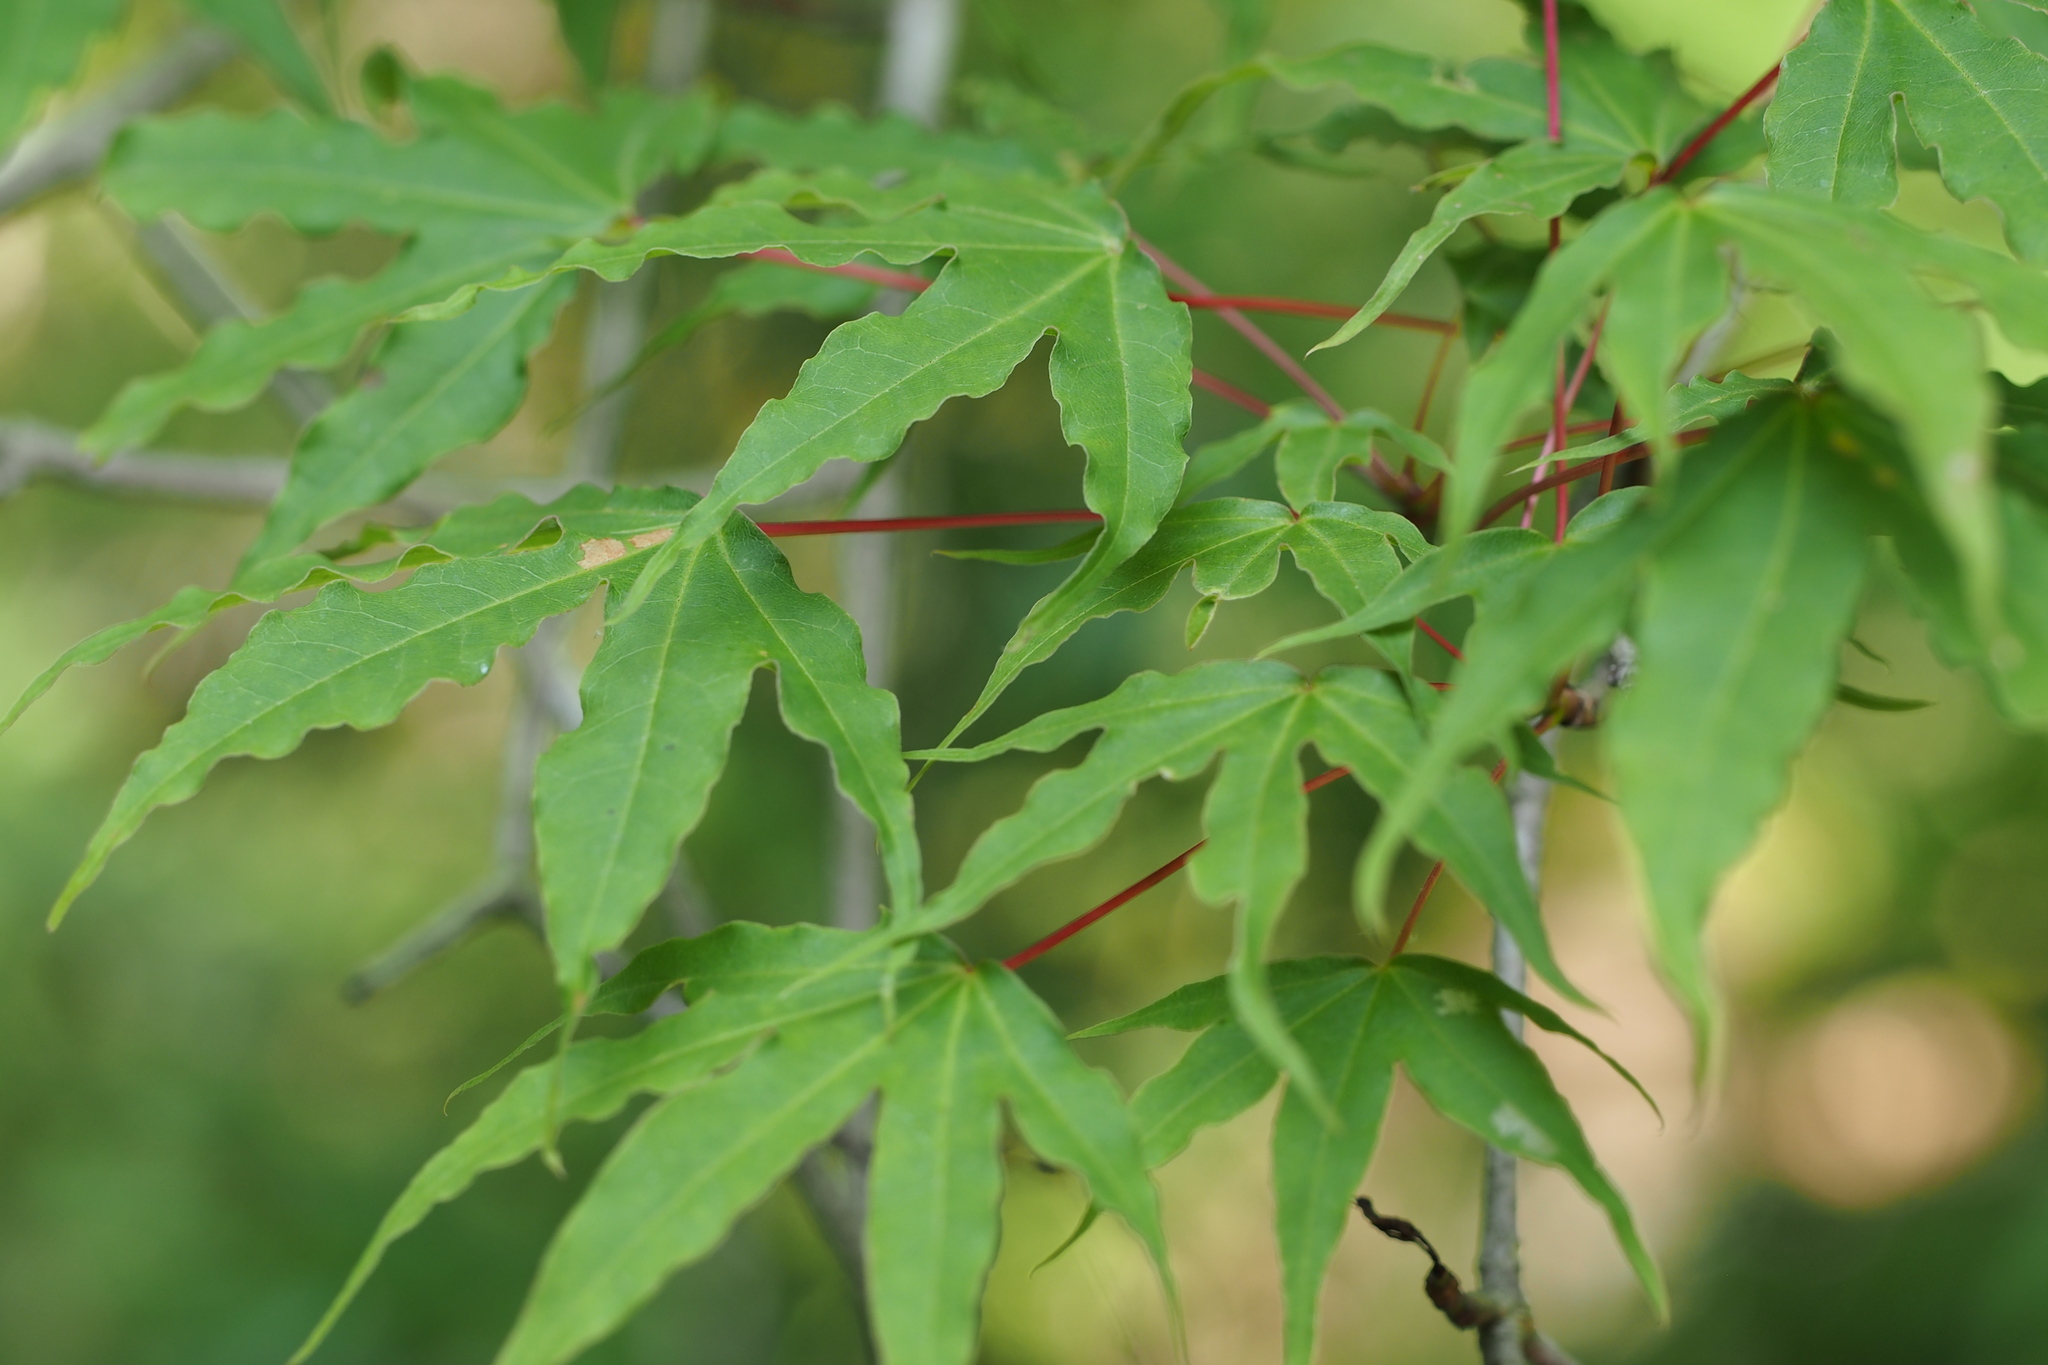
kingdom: Plantae
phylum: Tracheophyta
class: Magnoliopsida
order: Sapindales
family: Sapindaceae
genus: Acer
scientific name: Acer pictum
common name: The painted maple
